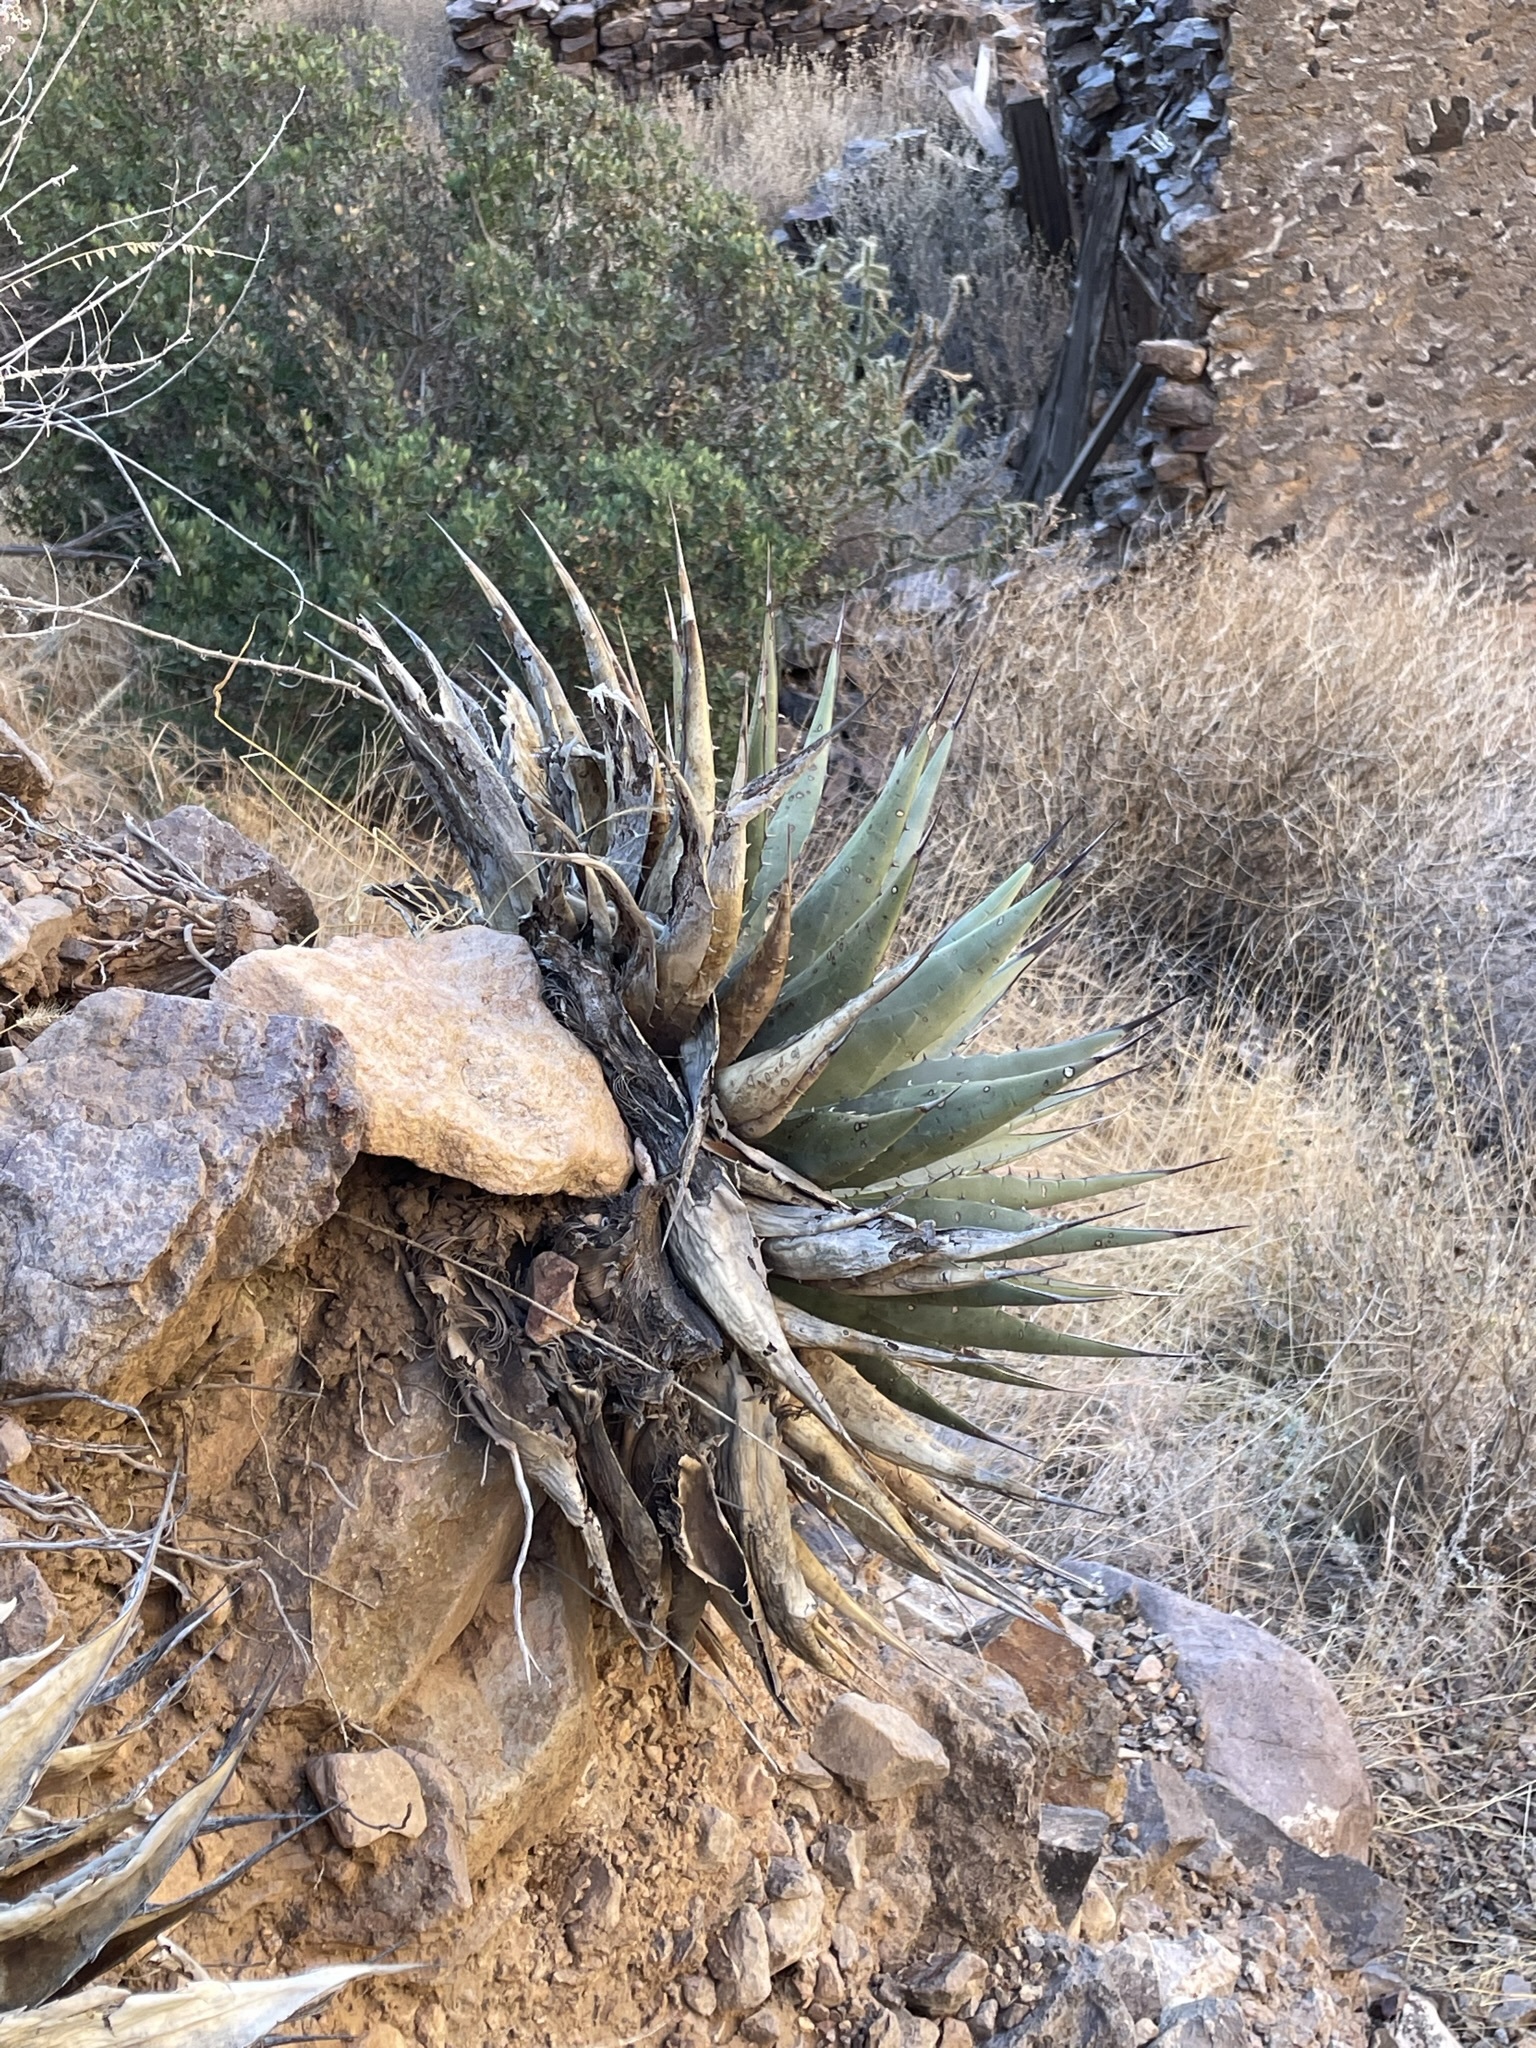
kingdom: Plantae
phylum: Tracheophyta
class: Liliopsida
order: Asparagales
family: Asparagaceae
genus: Agave
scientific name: Agave parryi
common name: Parry's agave
